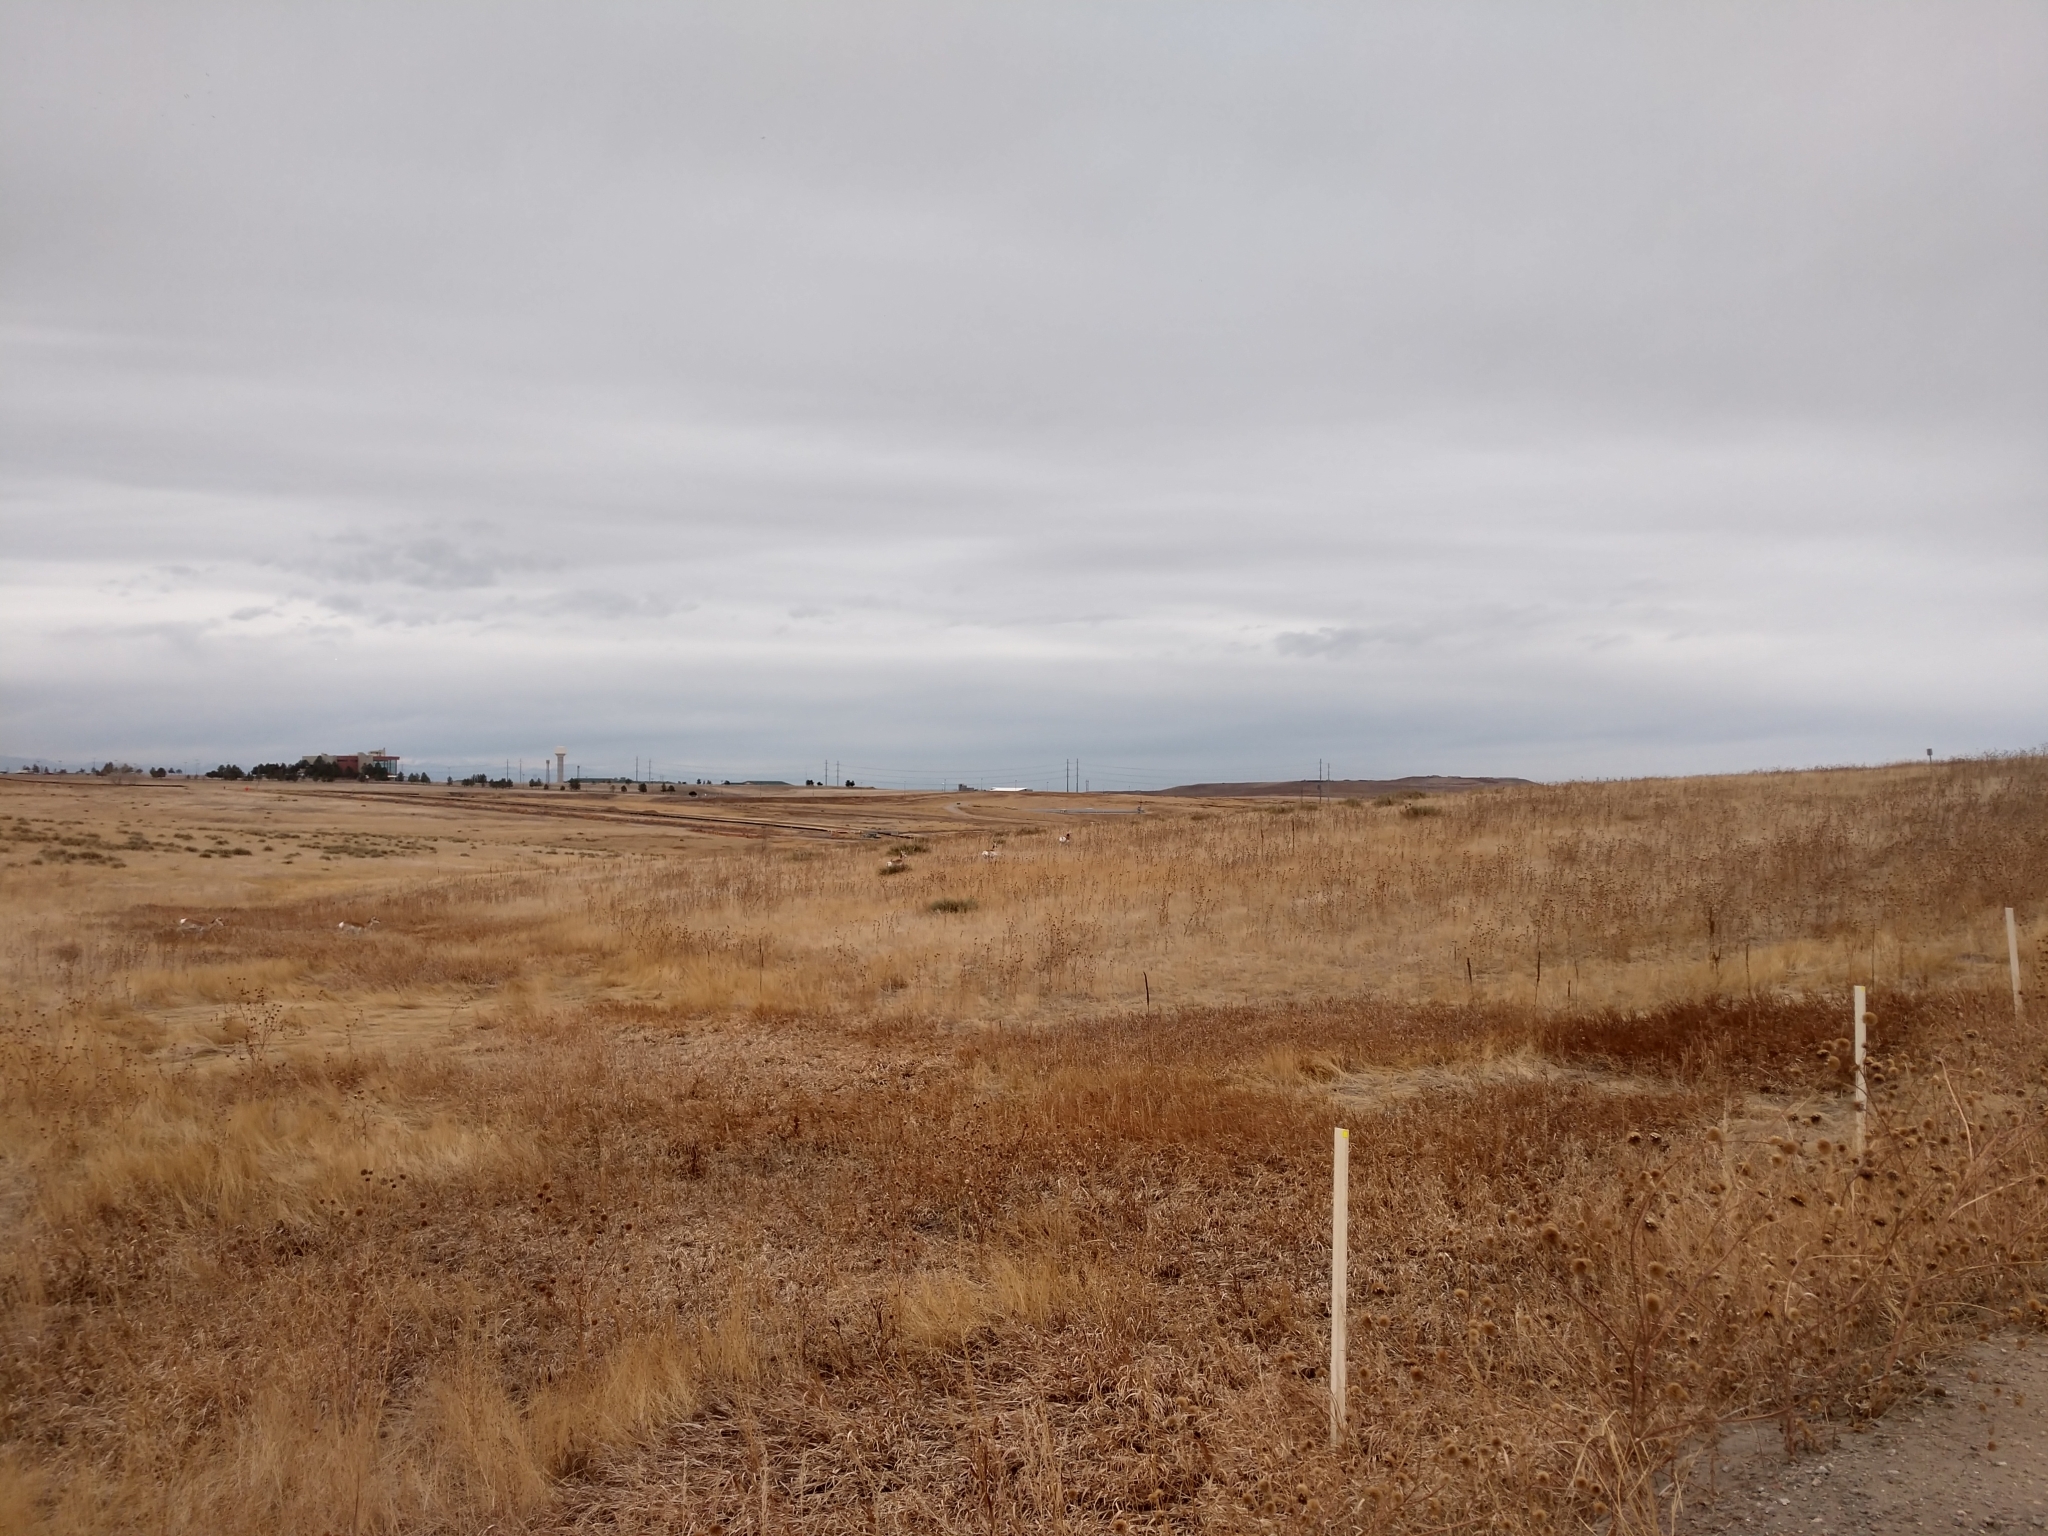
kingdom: Animalia
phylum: Chordata
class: Mammalia
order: Artiodactyla
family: Antilocapridae
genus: Antilocapra
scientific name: Antilocapra americana
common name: Pronghorn
